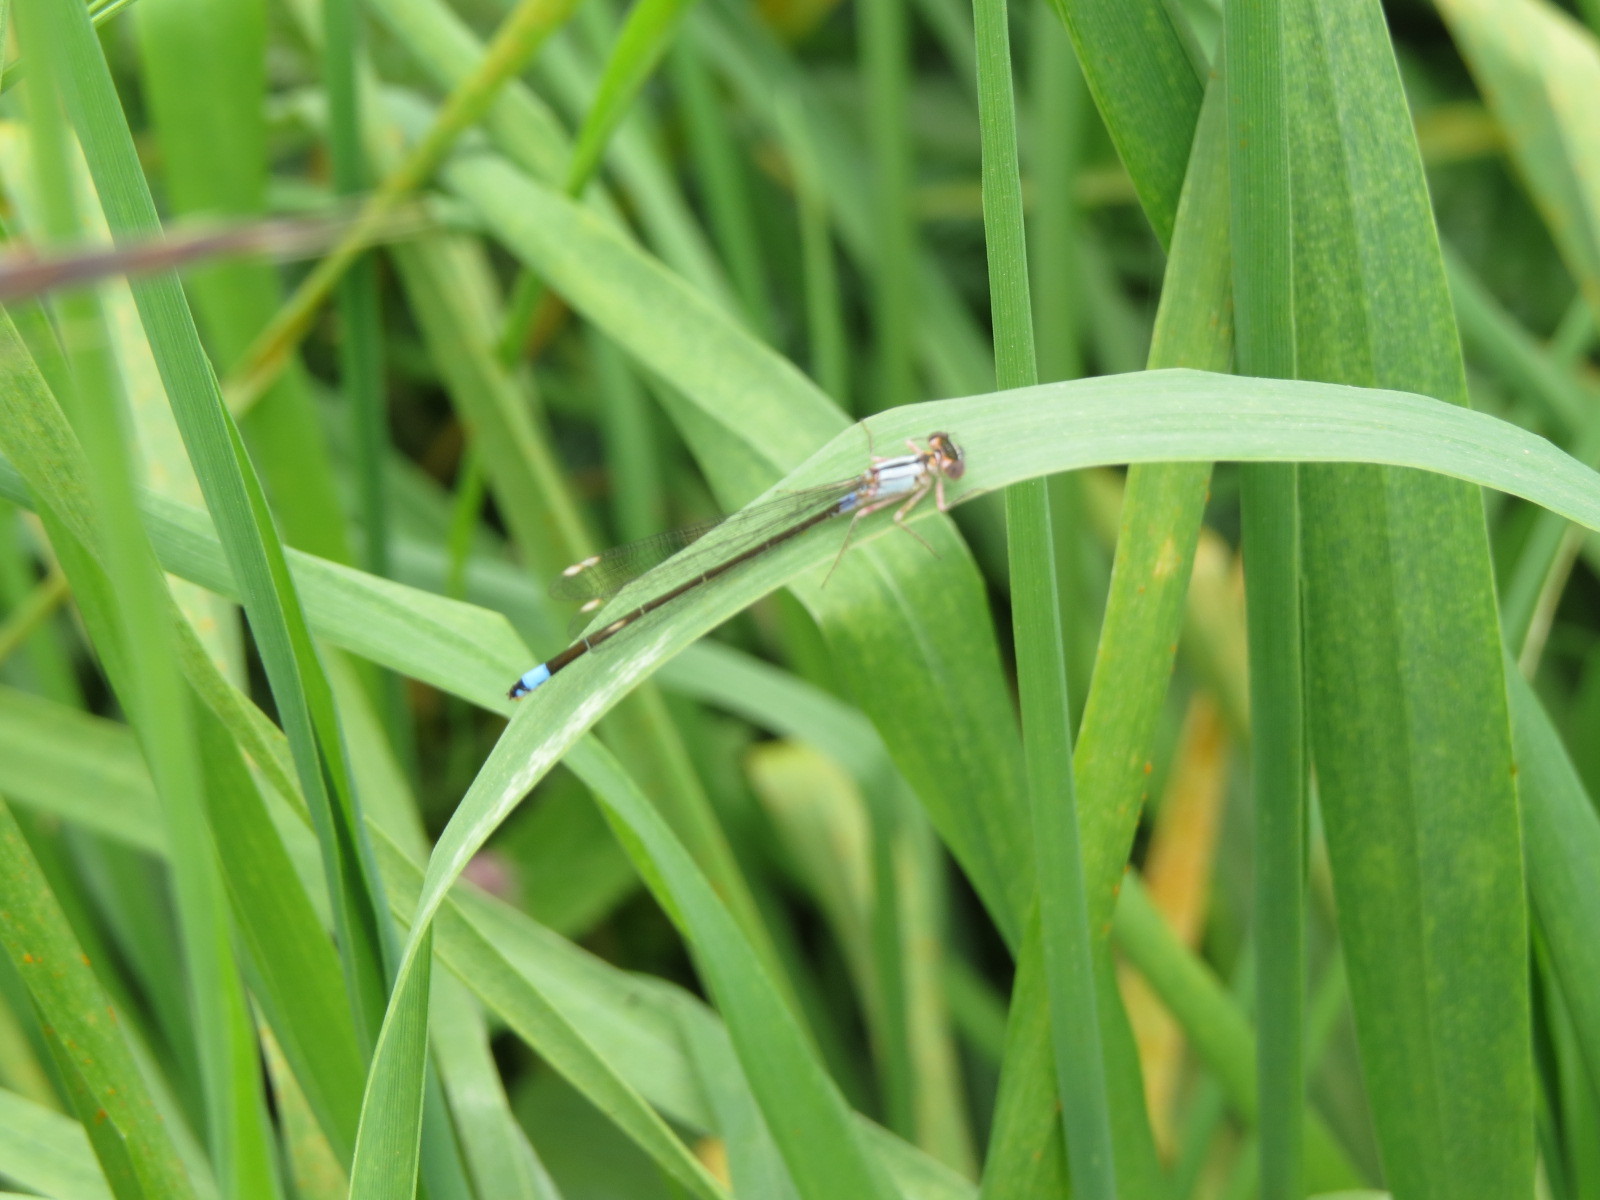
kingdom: Animalia
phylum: Arthropoda
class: Insecta
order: Odonata
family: Coenagrionidae
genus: Ischnura
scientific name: Ischnura cervula
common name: Pacific forktail
